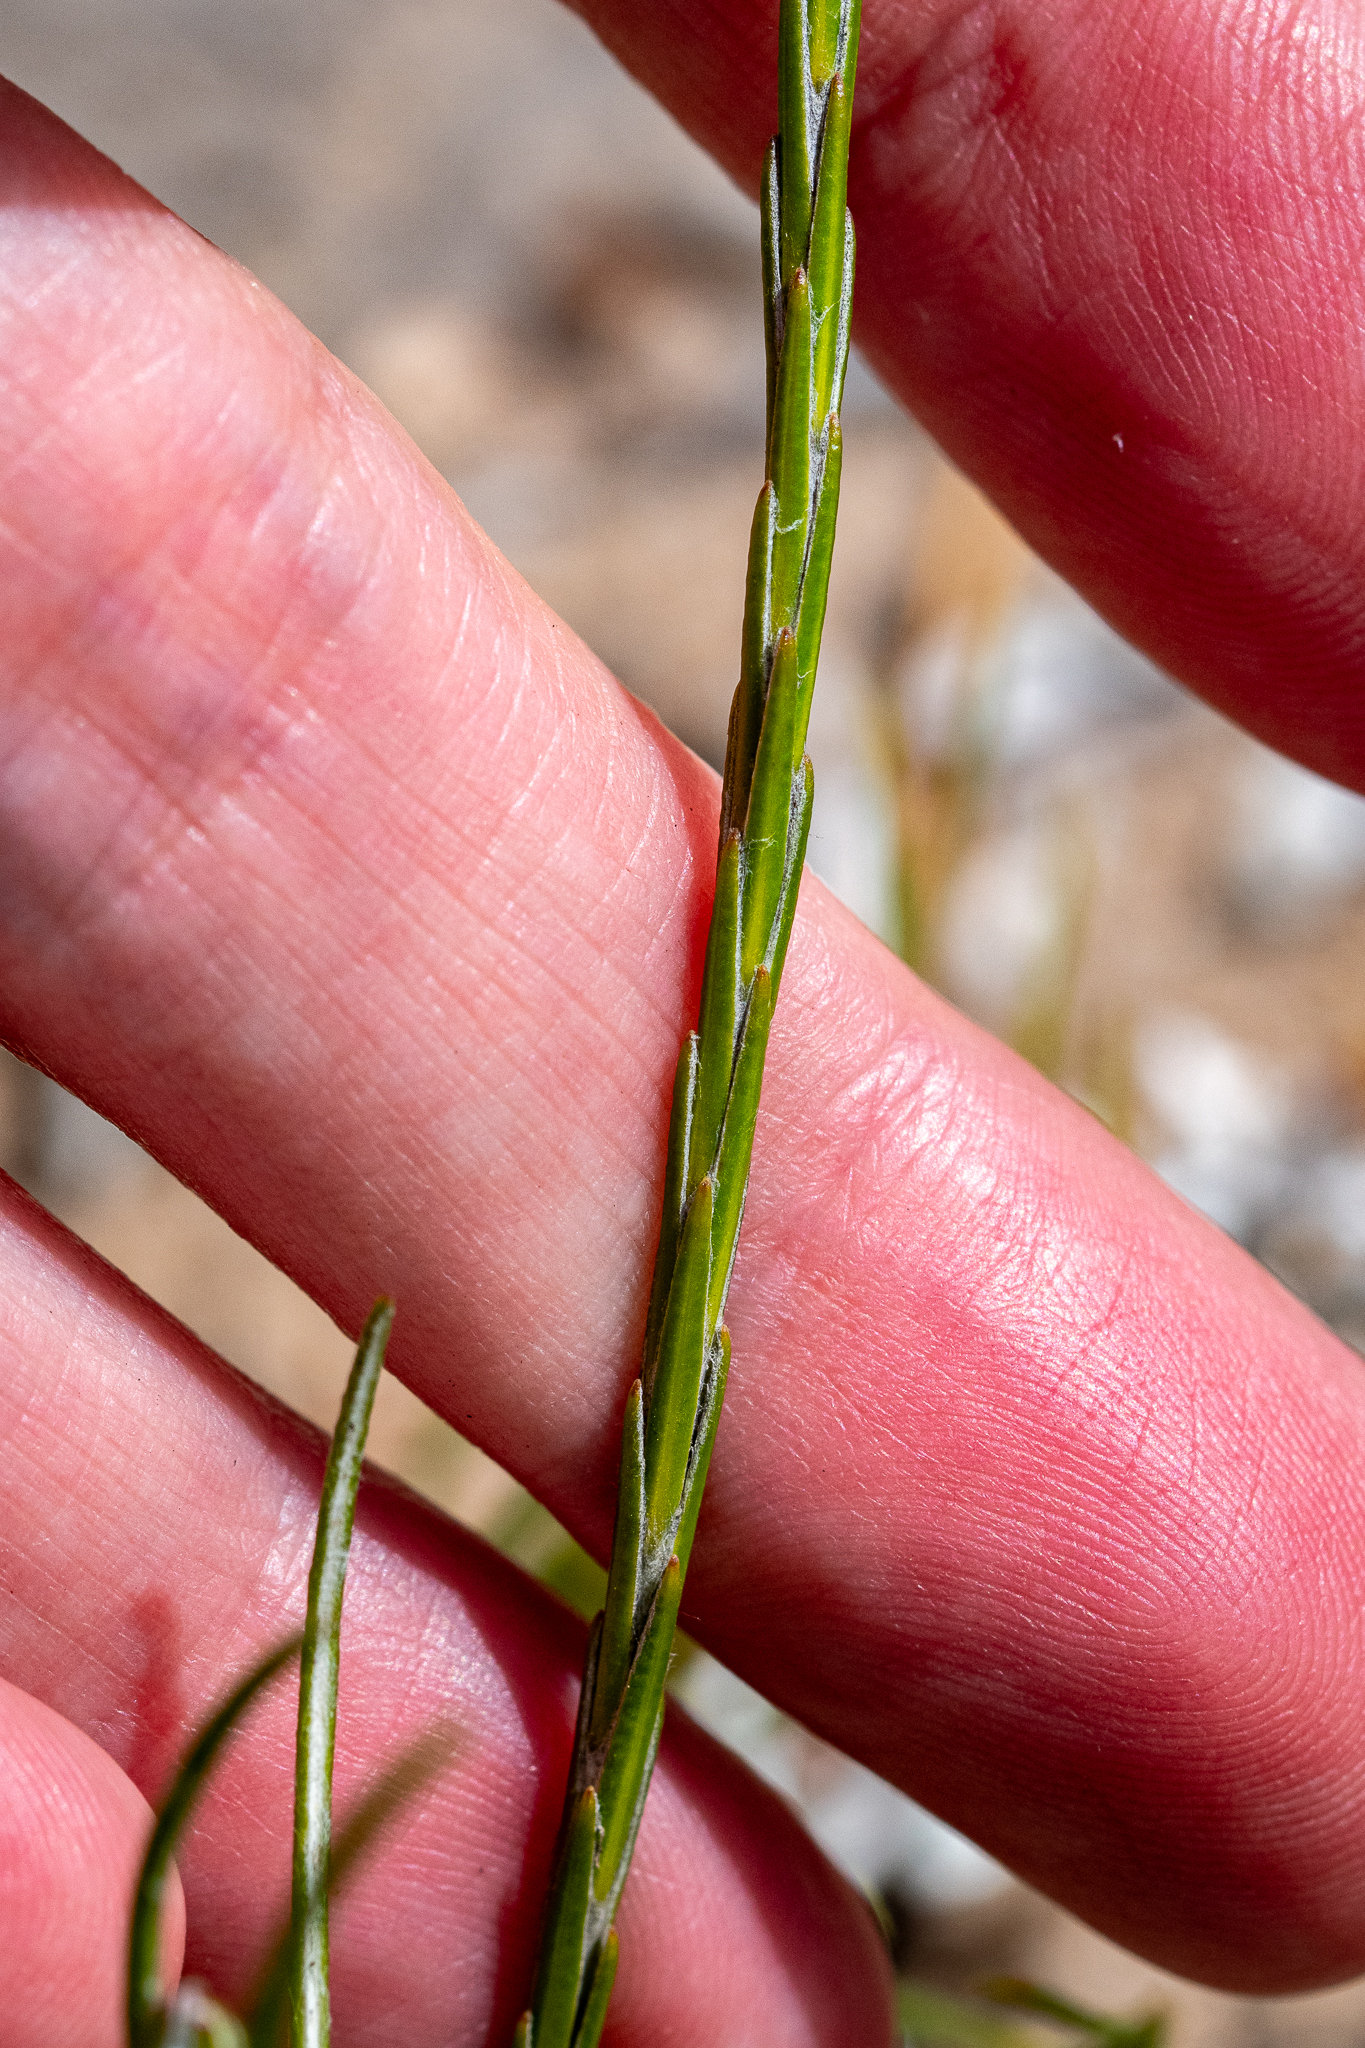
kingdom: Plantae
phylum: Tracheophyta
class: Magnoliopsida
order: Asterales
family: Asteraceae
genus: Edmondia
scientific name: Edmondia sesamoides
